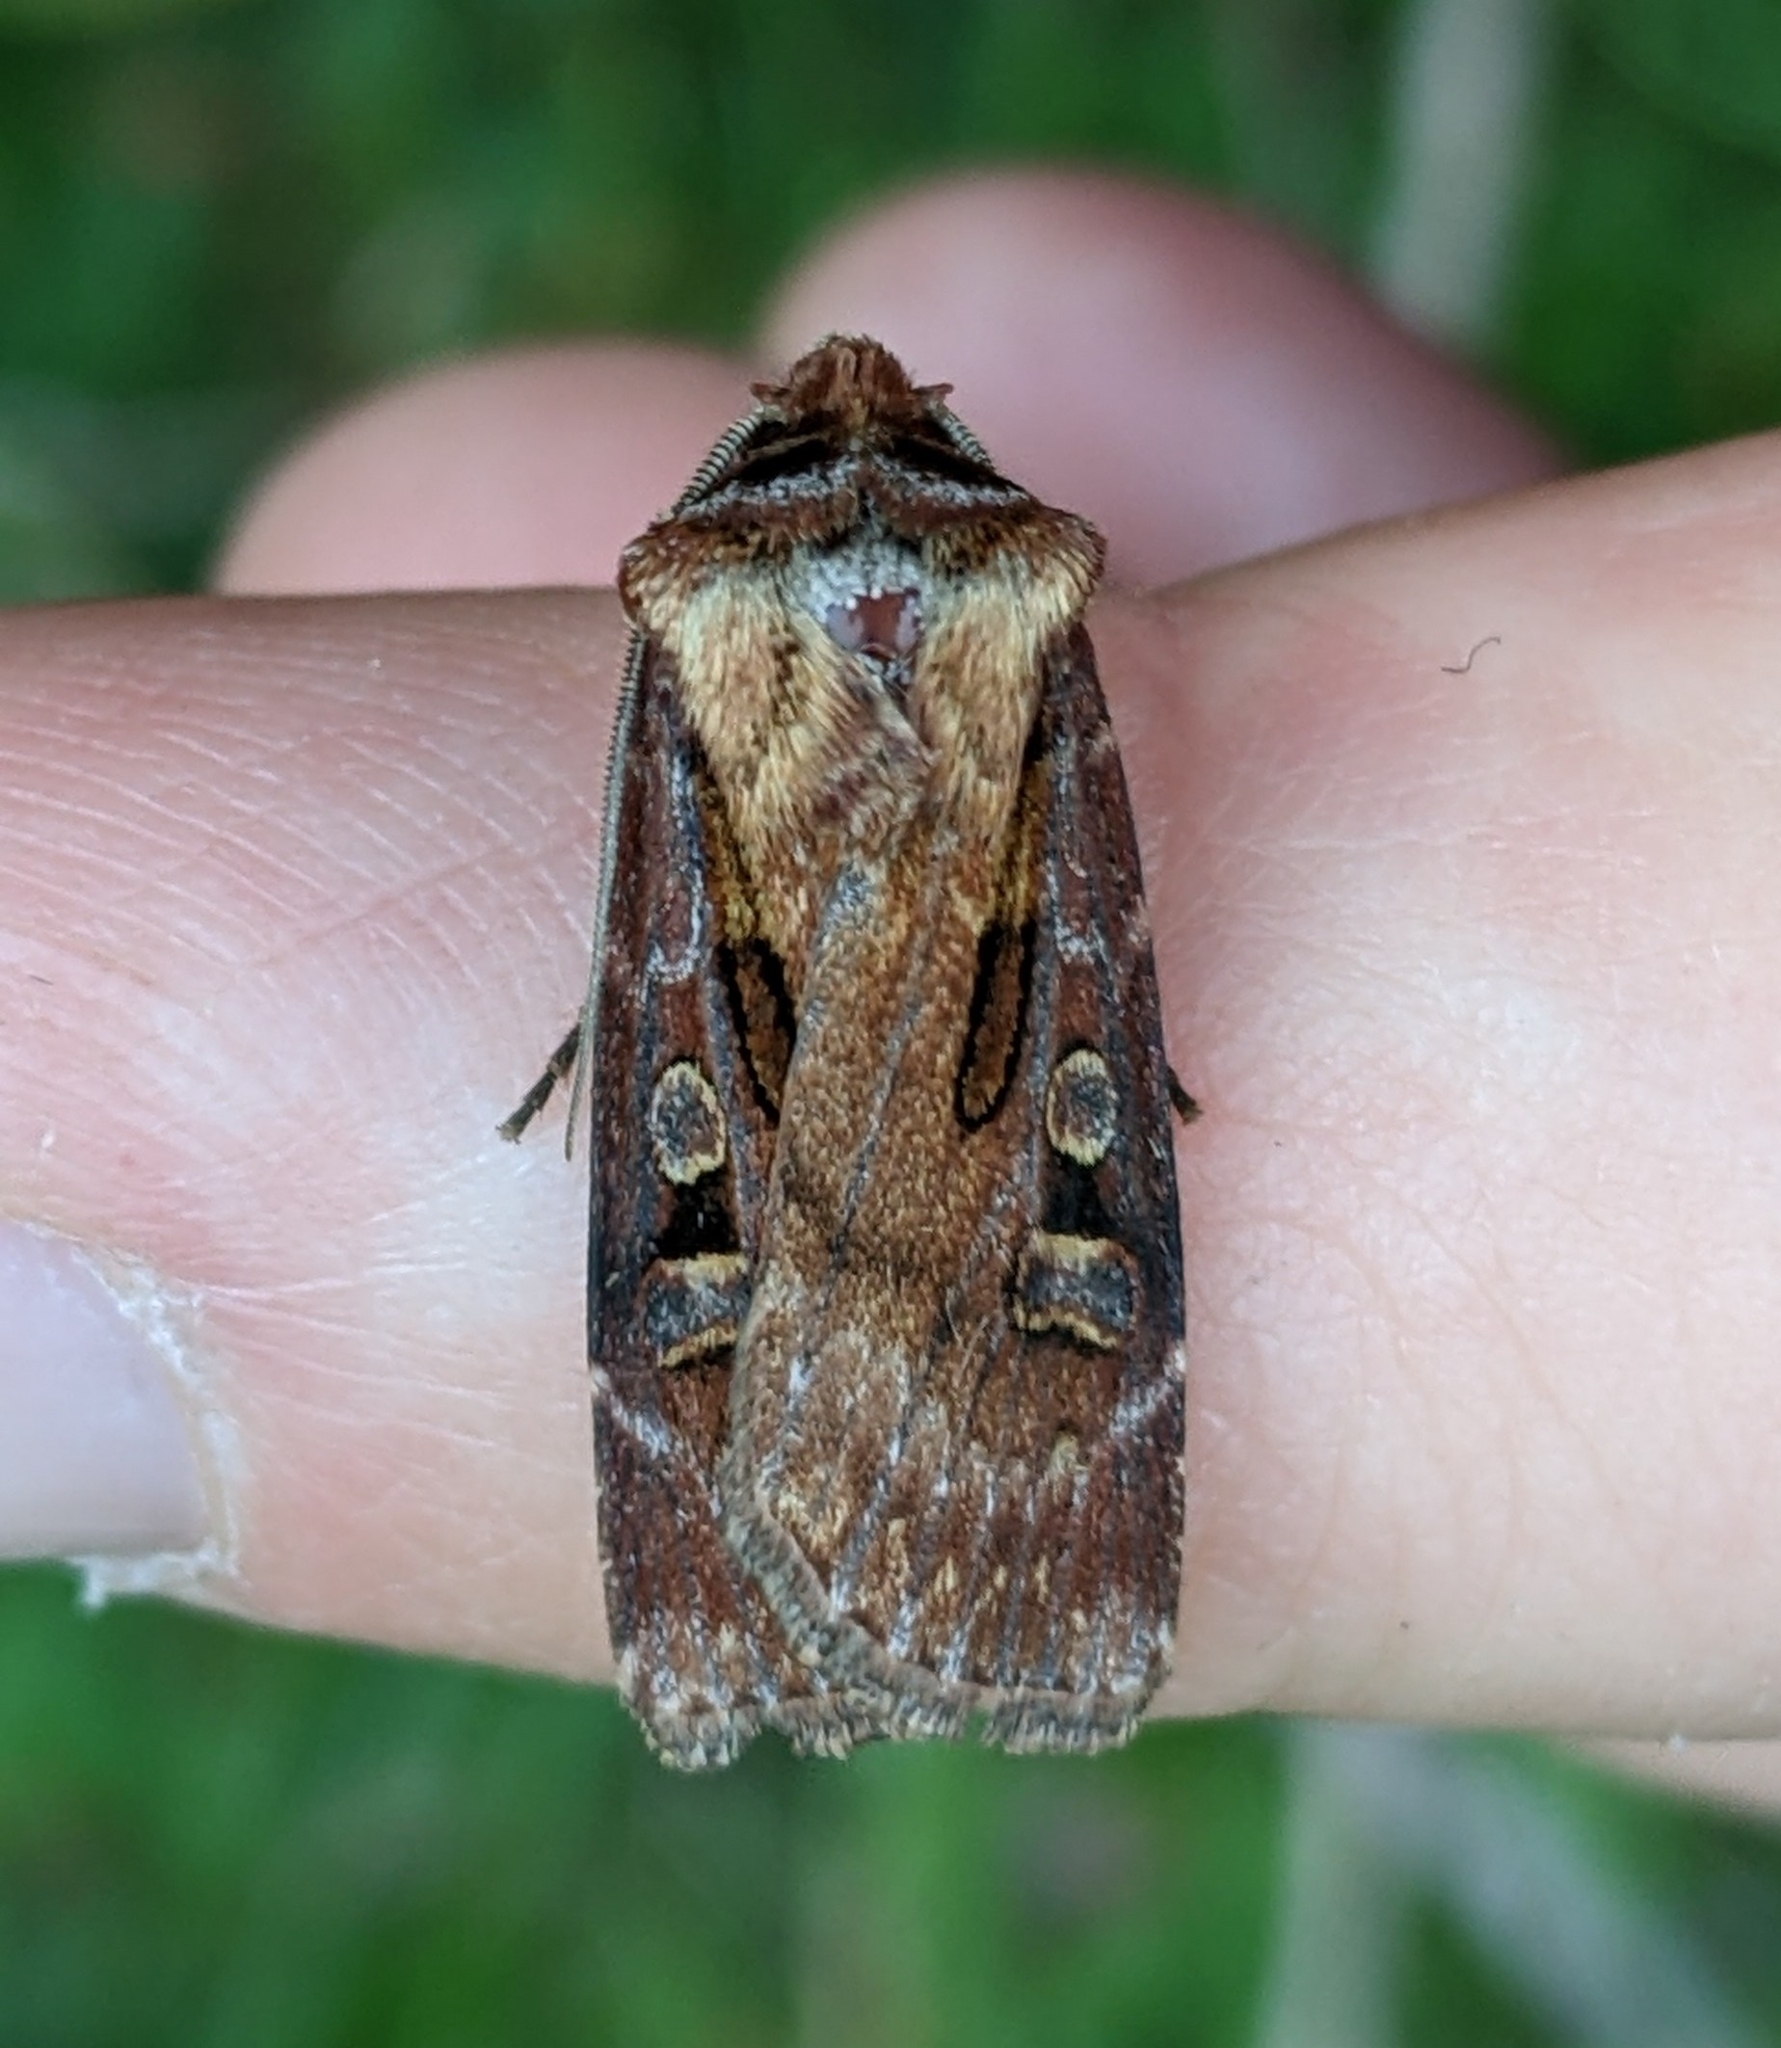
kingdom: Animalia
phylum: Arthropoda
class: Insecta
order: Lepidoptera
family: Noctuidae
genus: Agrotis
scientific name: Agrotis vancouverensis
